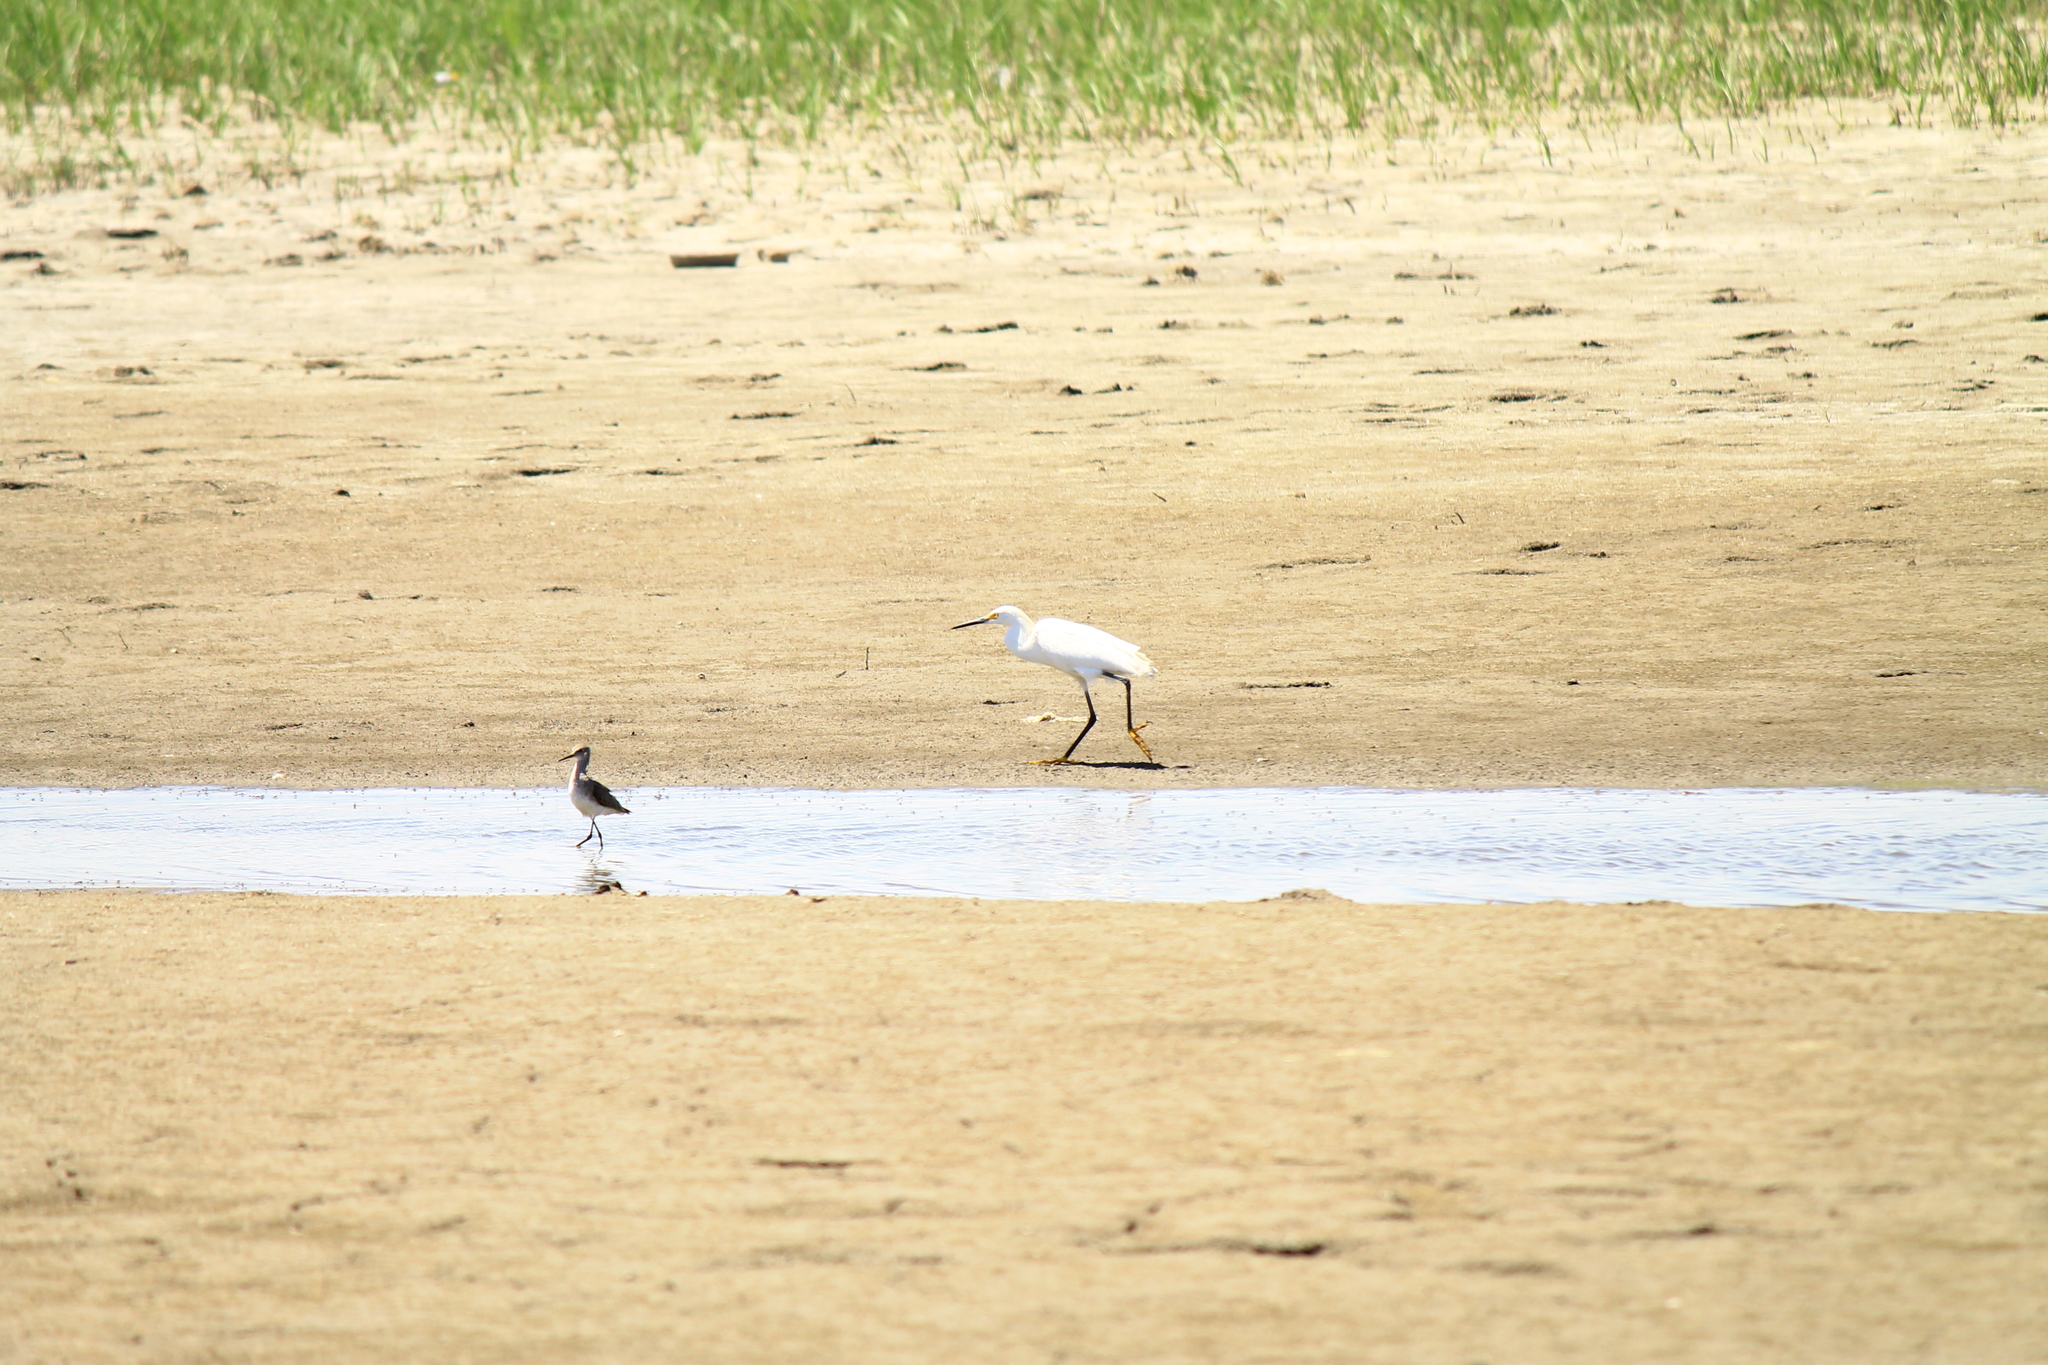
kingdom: Animalia
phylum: Chordata
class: Aves
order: Pelecaniformes
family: Ardeidae
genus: Egretta
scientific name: Egretta thula
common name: Snowy egret
